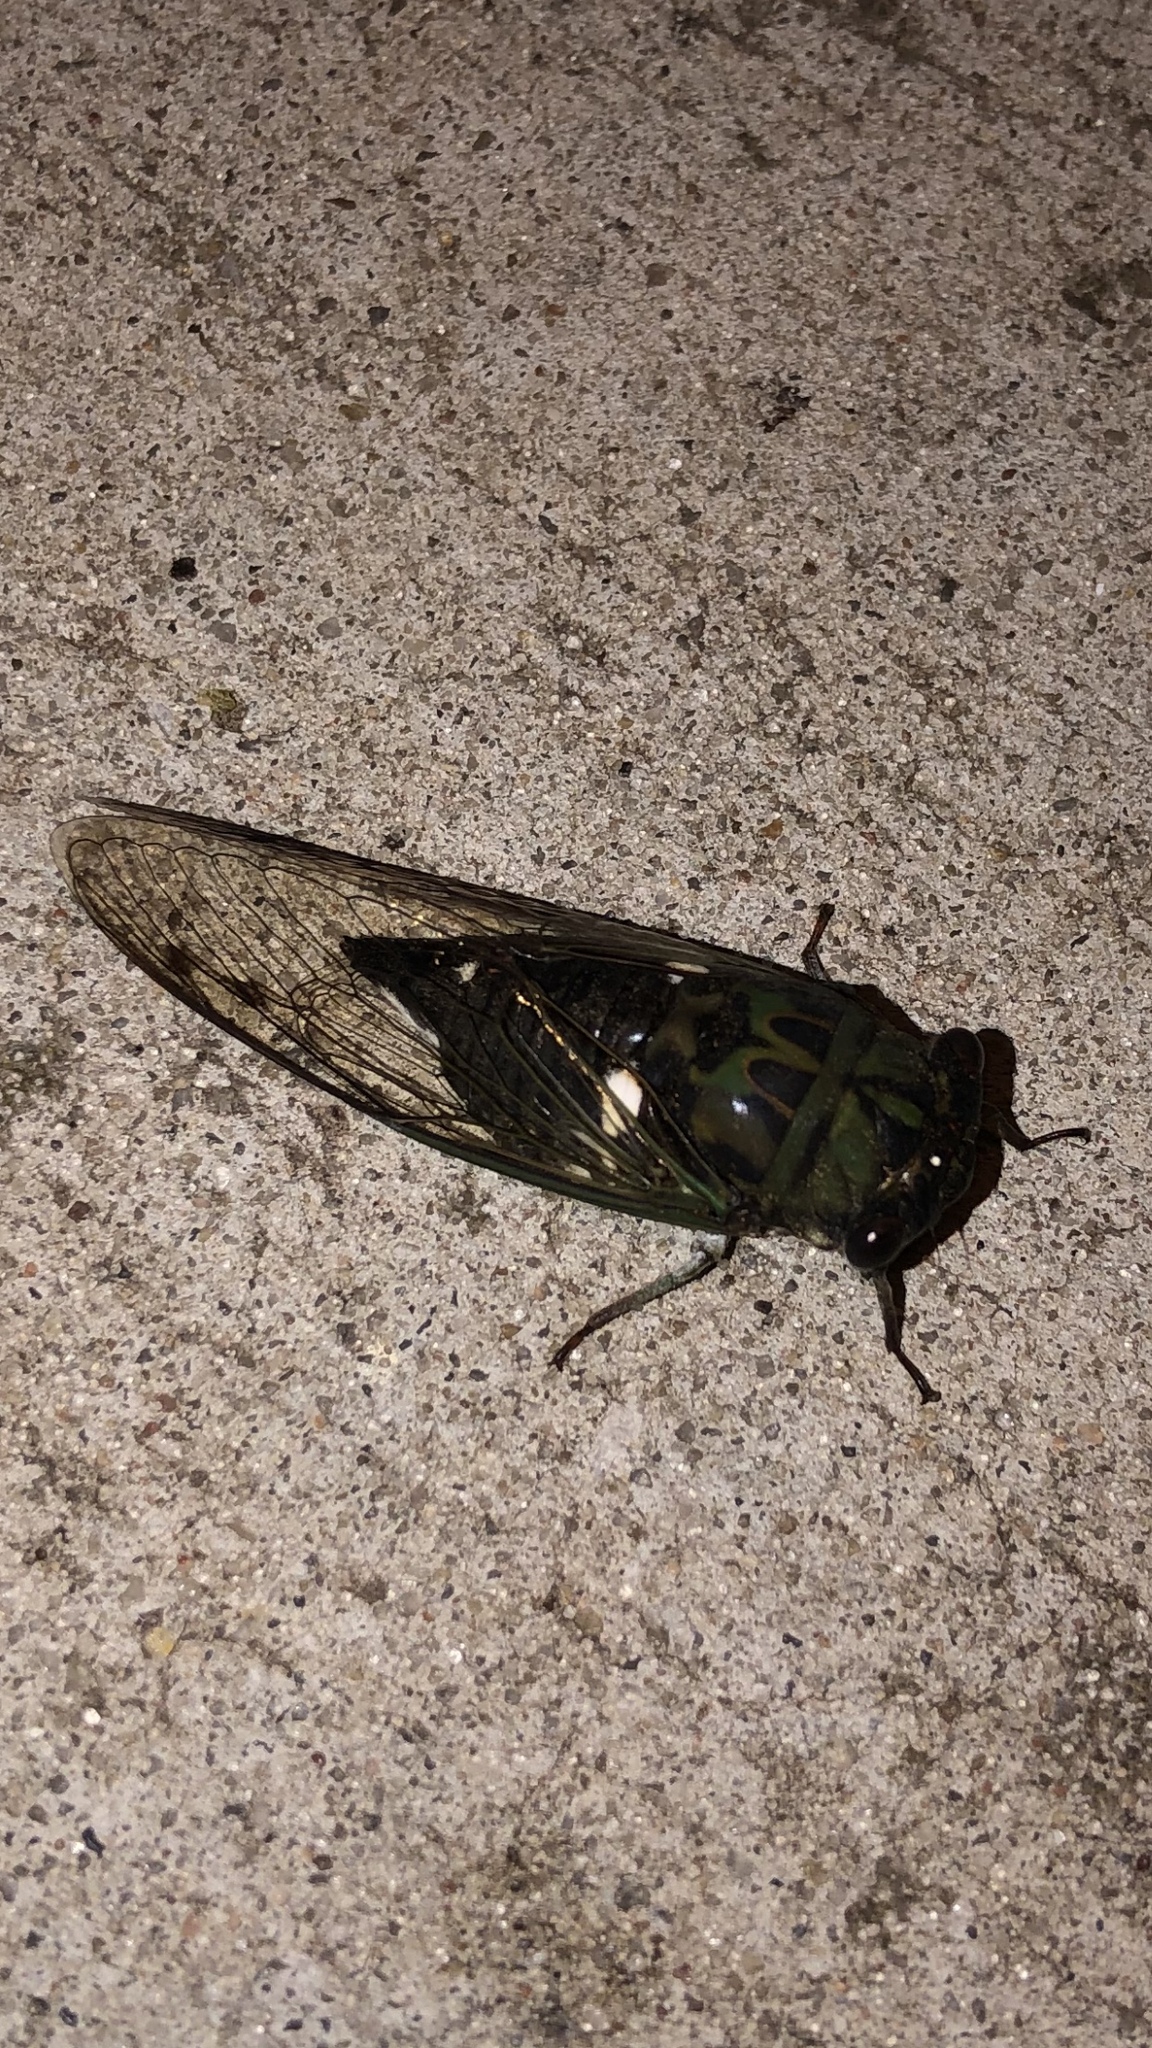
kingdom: Animalia
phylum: Arthropoda
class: Insecta
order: Hemiptera
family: Cicadidae
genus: Neotibicen
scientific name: Neotibicen pruinosus
